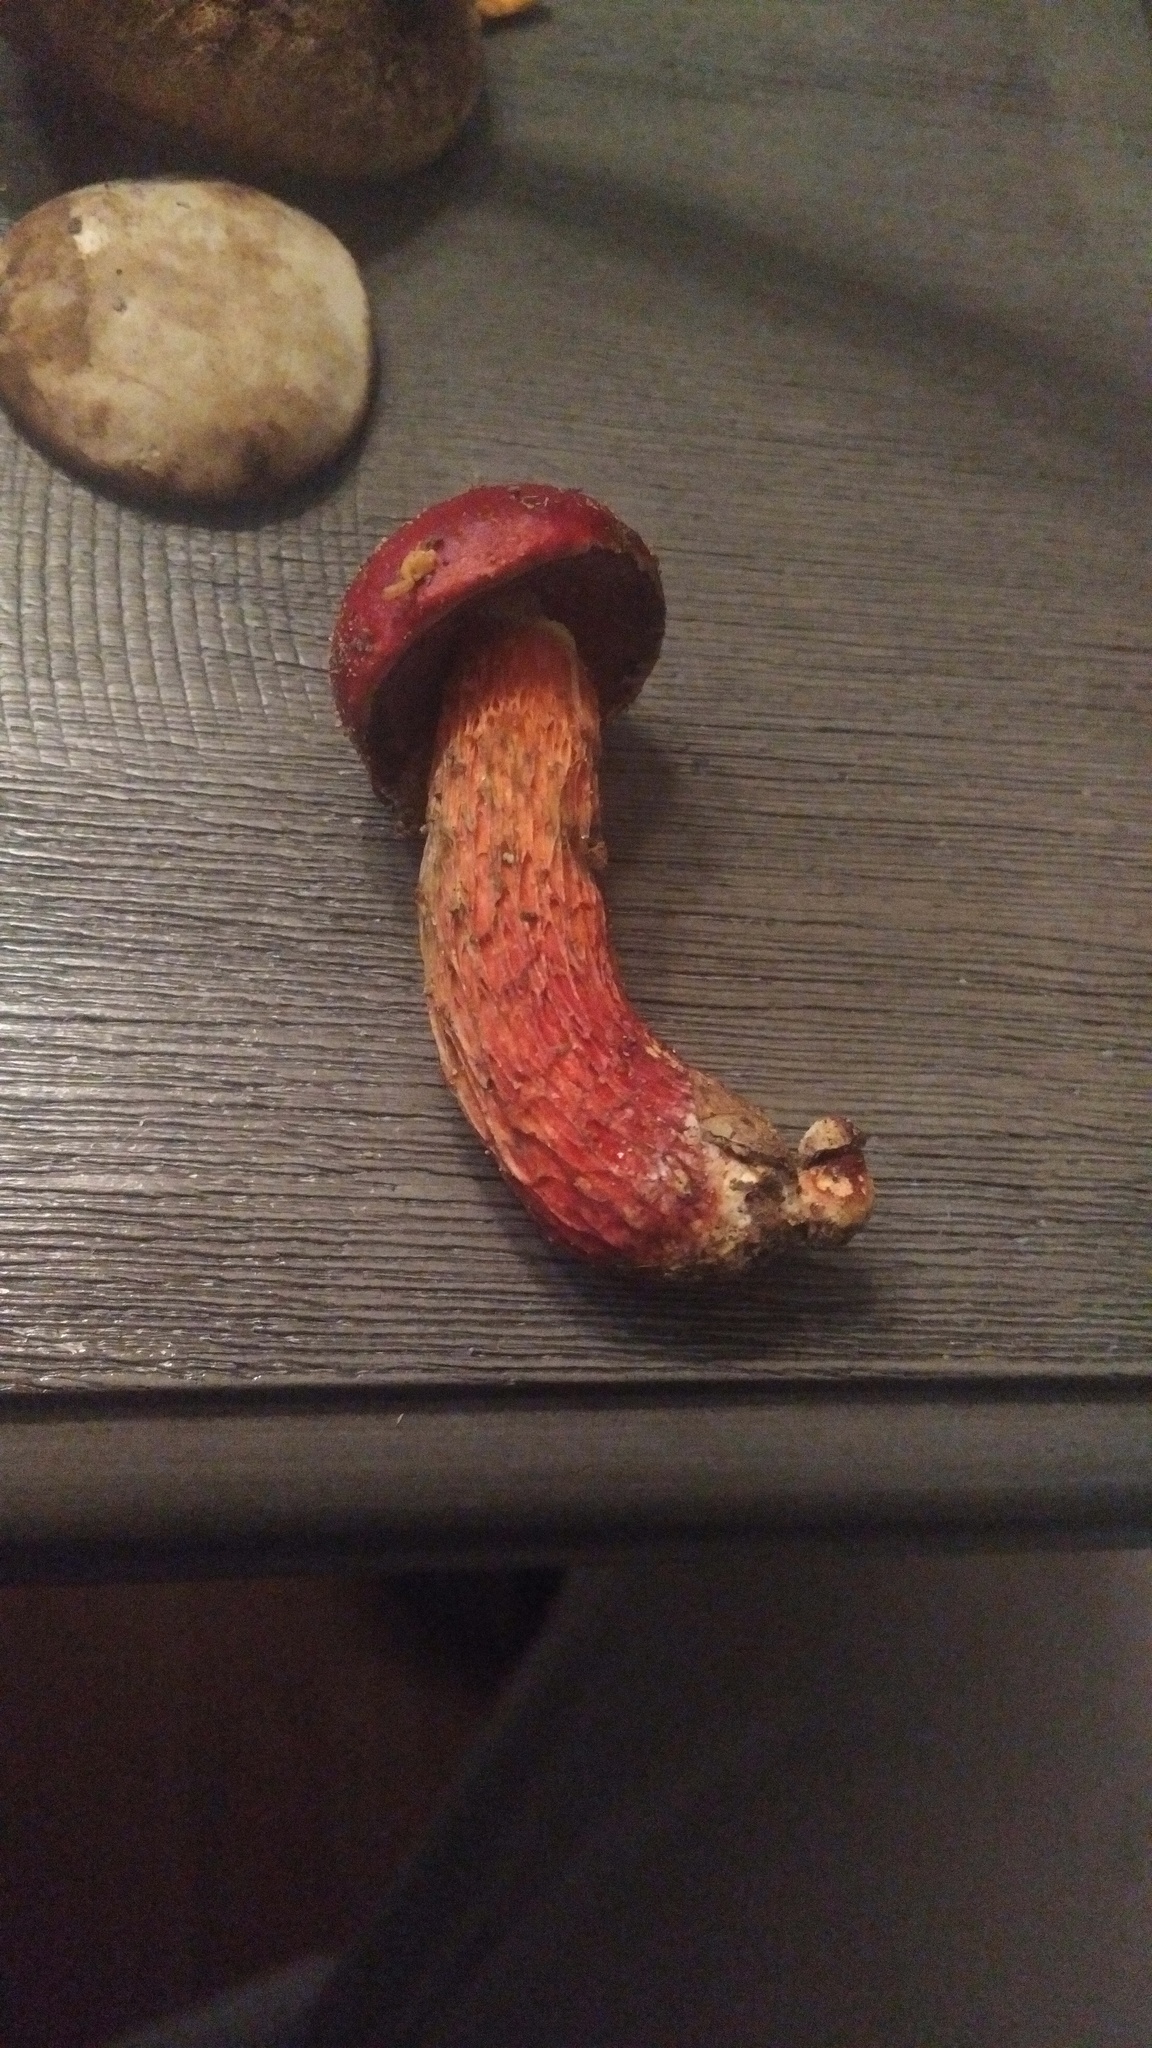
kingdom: Fungi
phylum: Basidiomycota
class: Agaricomycetes
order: Boletales
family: Boletaceae
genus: Butyriboletus
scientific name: Butyriboletus frostii
